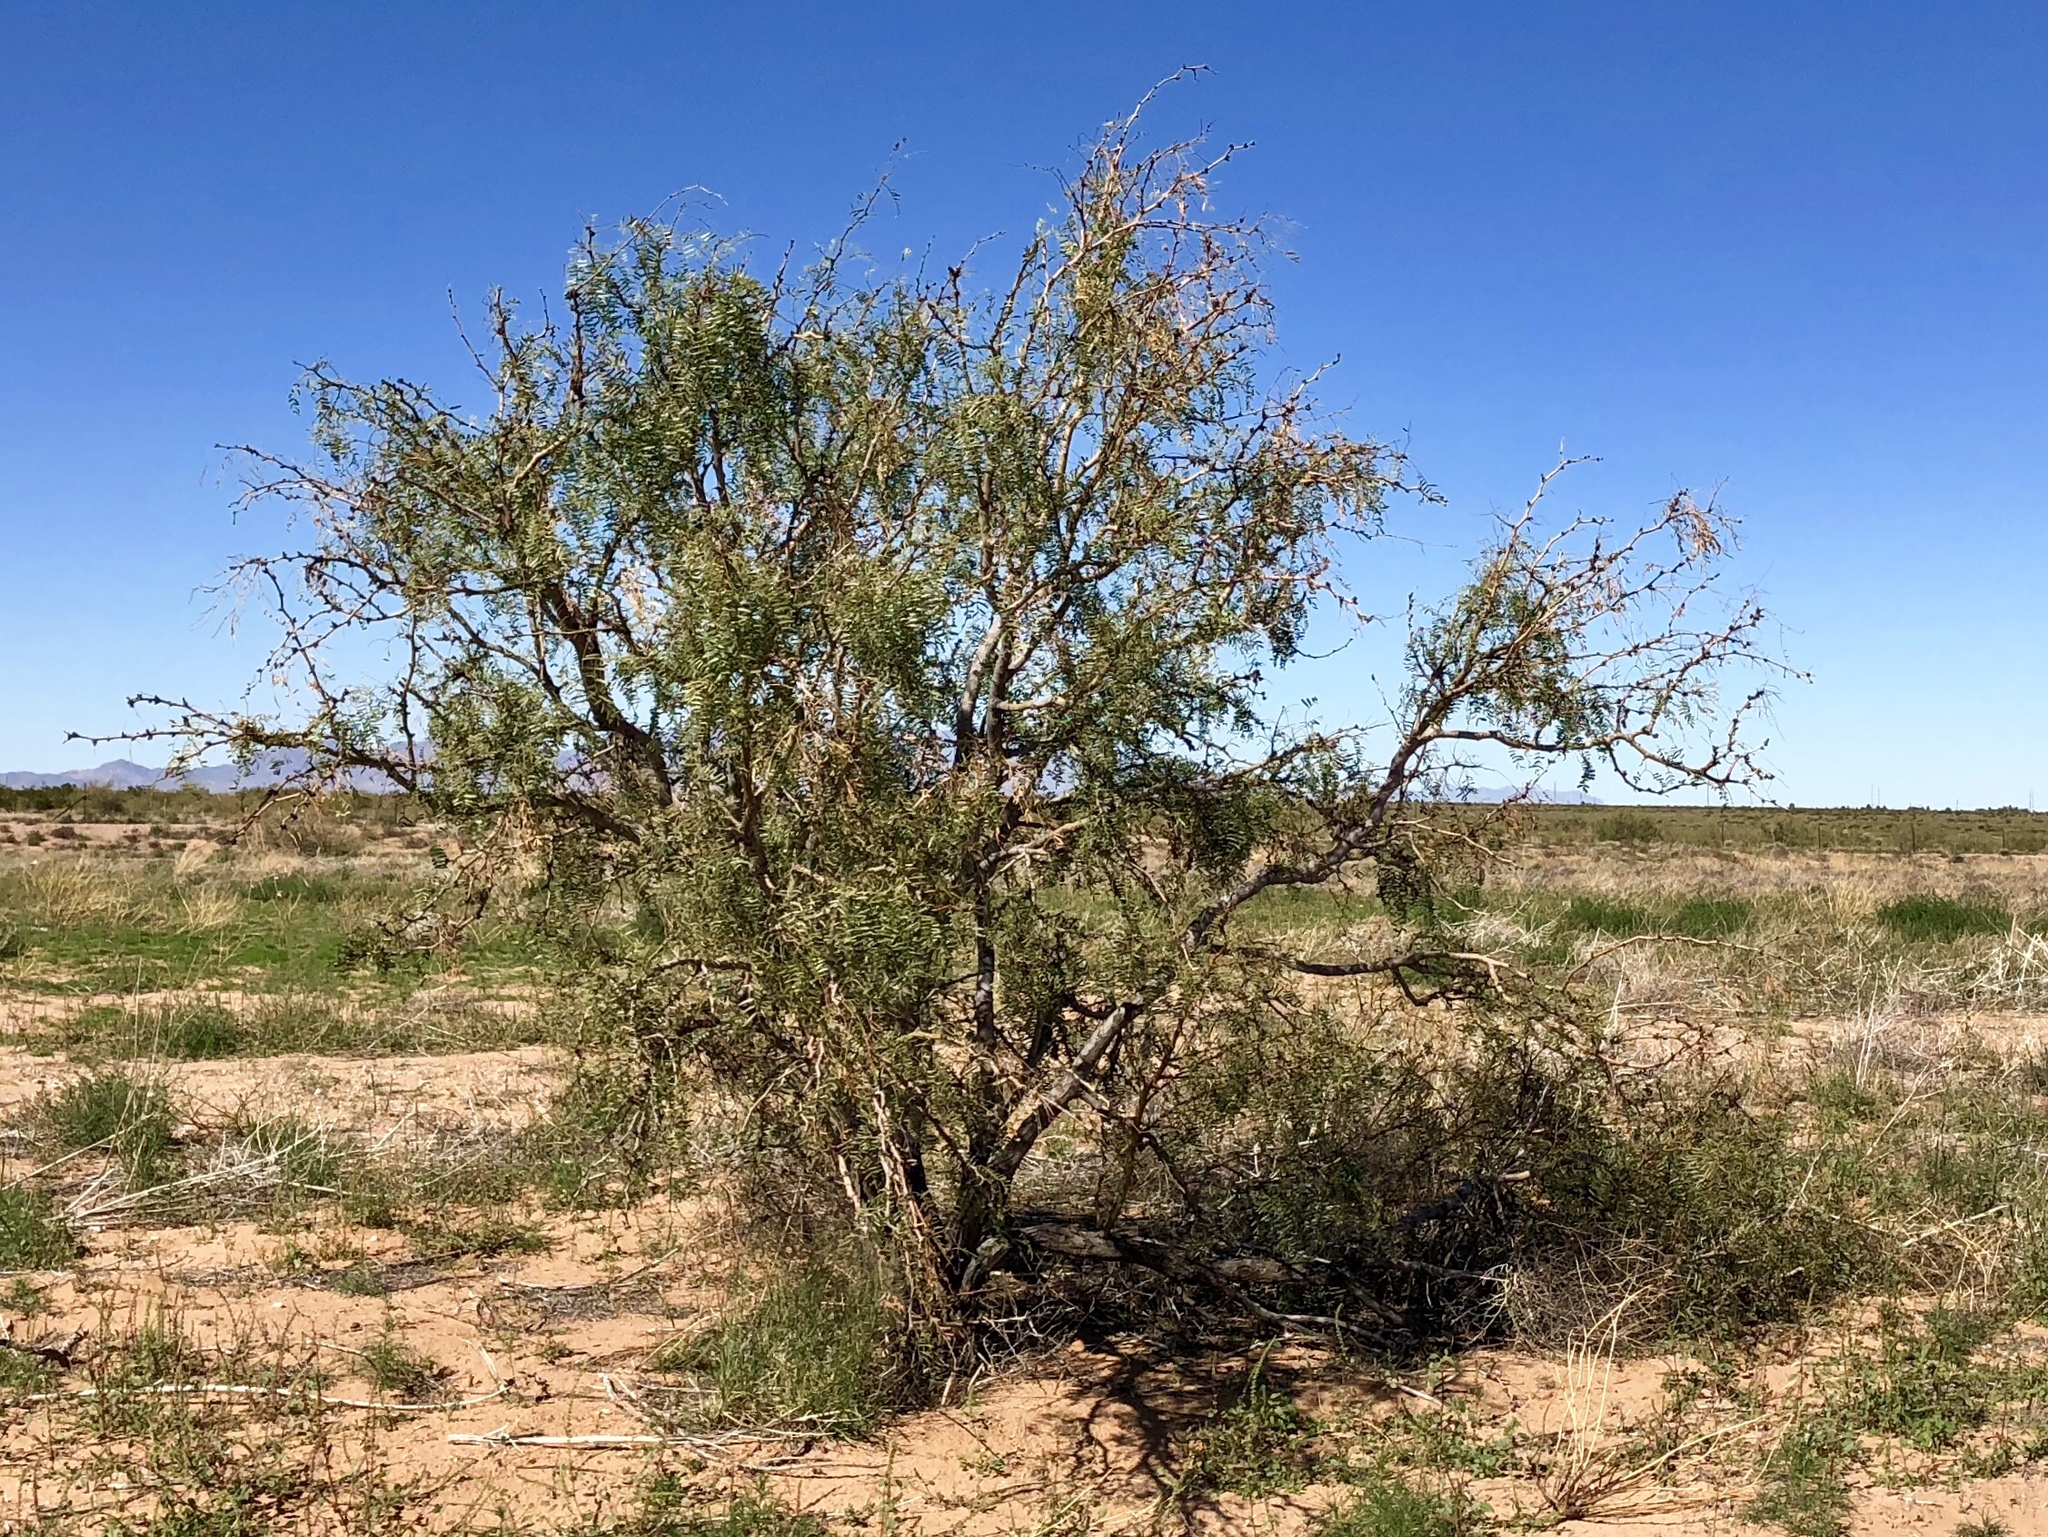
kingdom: Plantae
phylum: Tracheophyta
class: Magnoliopsida
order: Fabales
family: Fabaceae
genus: Prosopis
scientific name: Prosopis glandulosa
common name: Honey mesquite
